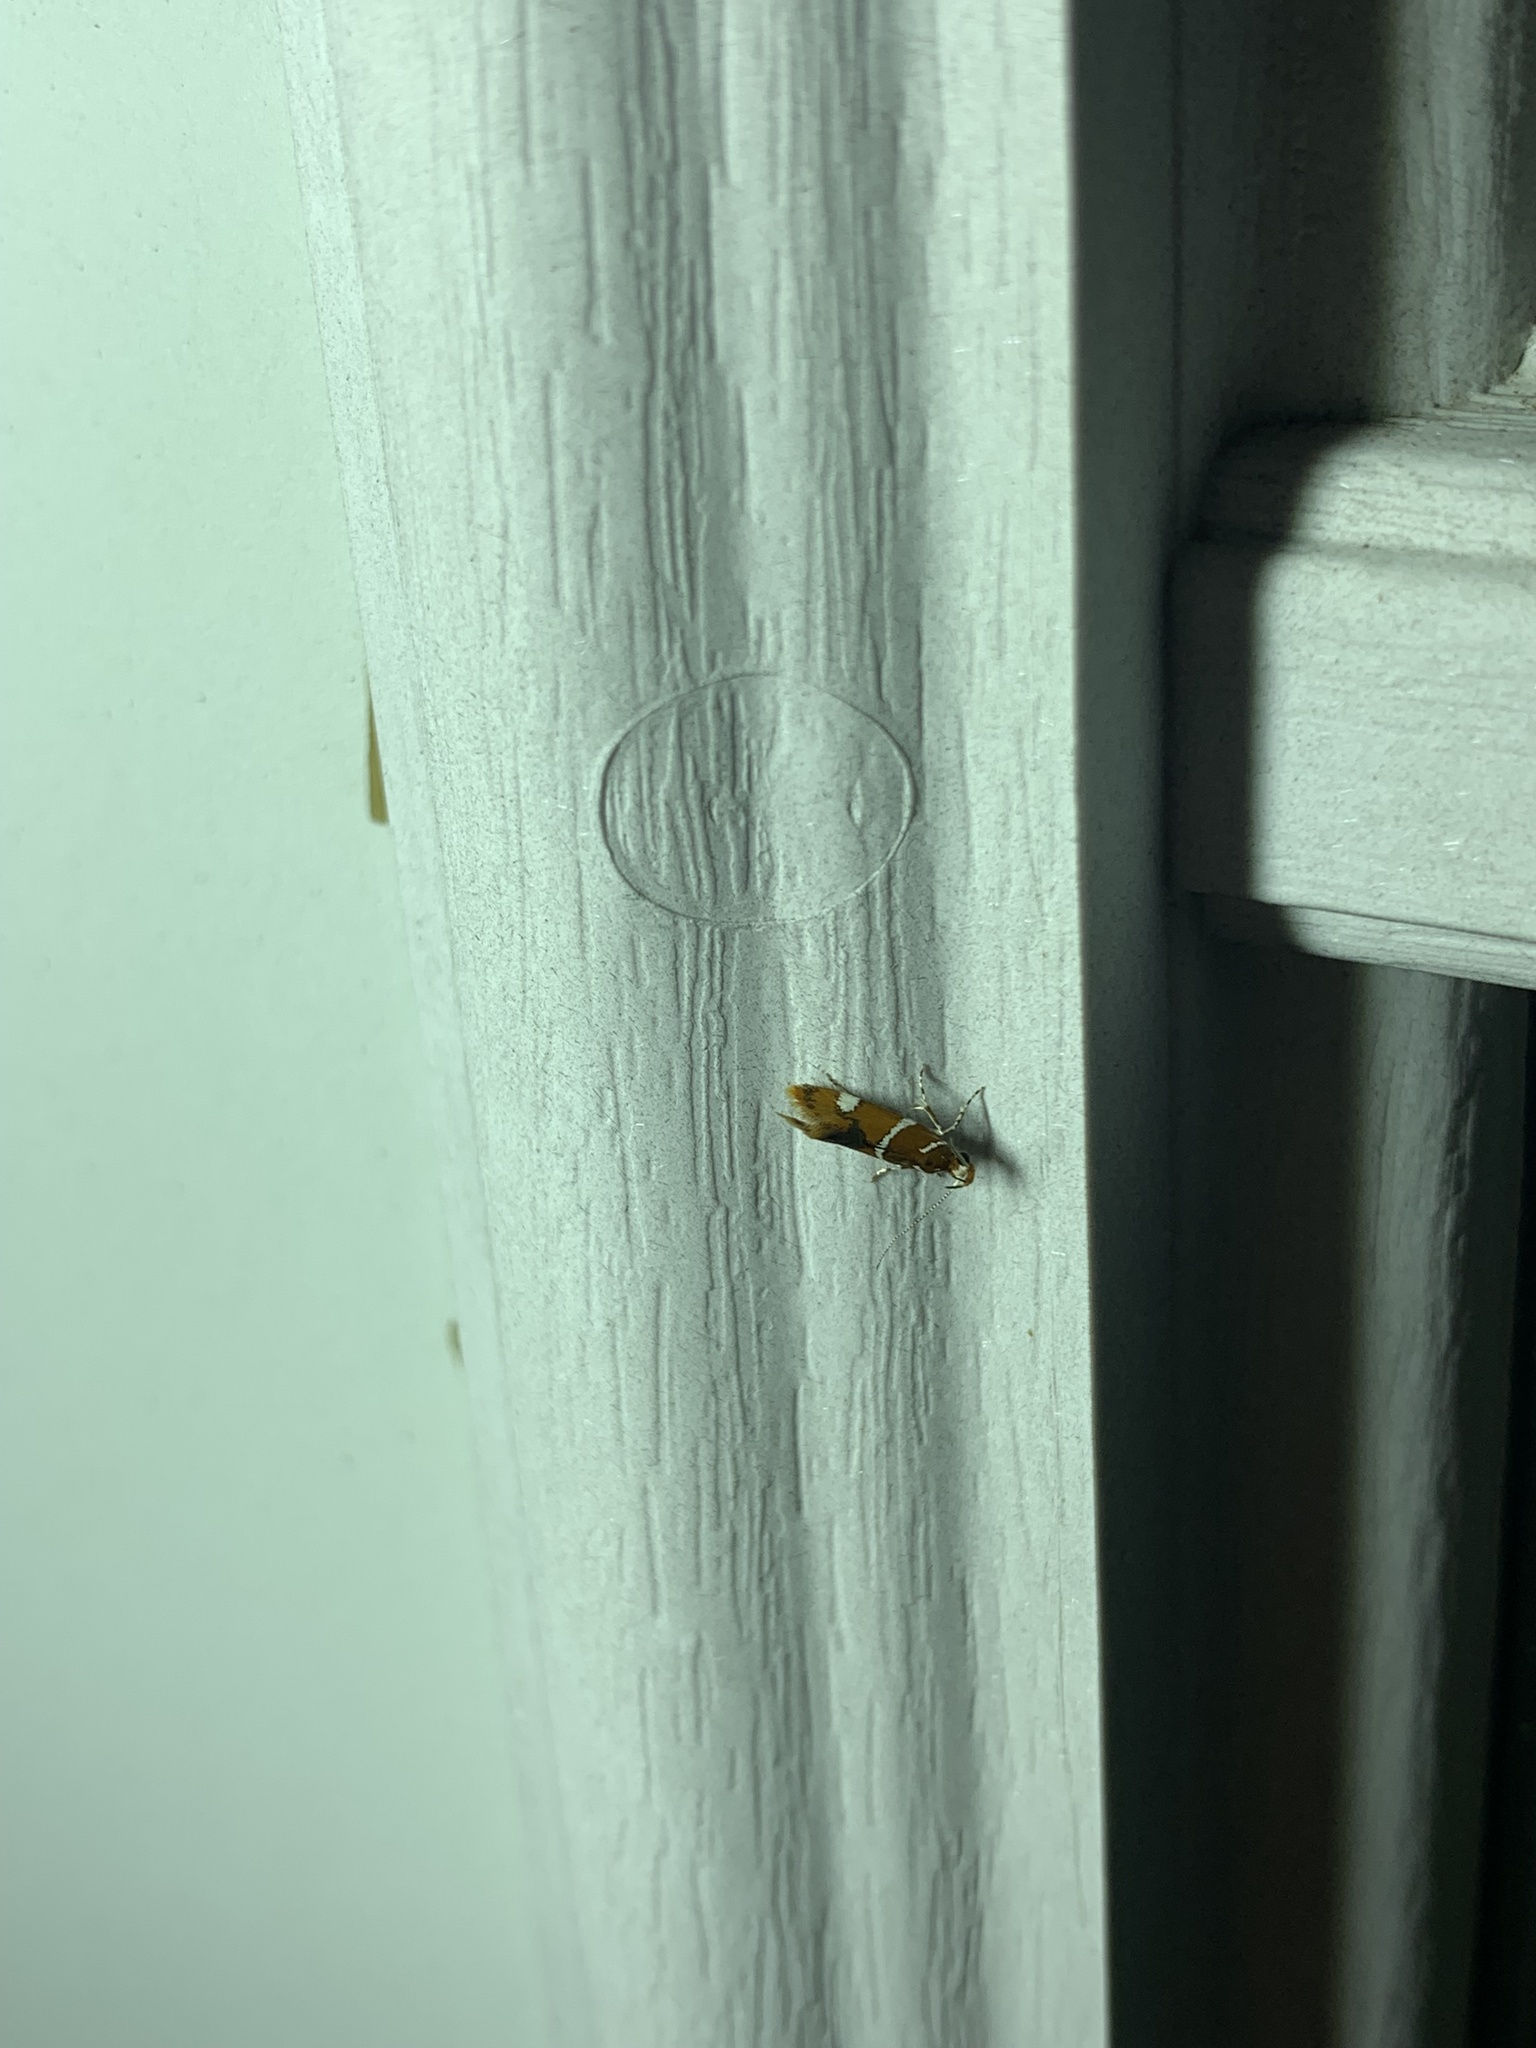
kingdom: Animalia
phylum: Arthropoda
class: Insecta
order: Lepidoptera
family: Oecophoridae
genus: Promalactis
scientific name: Promalactis suzukiella
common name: Moth
